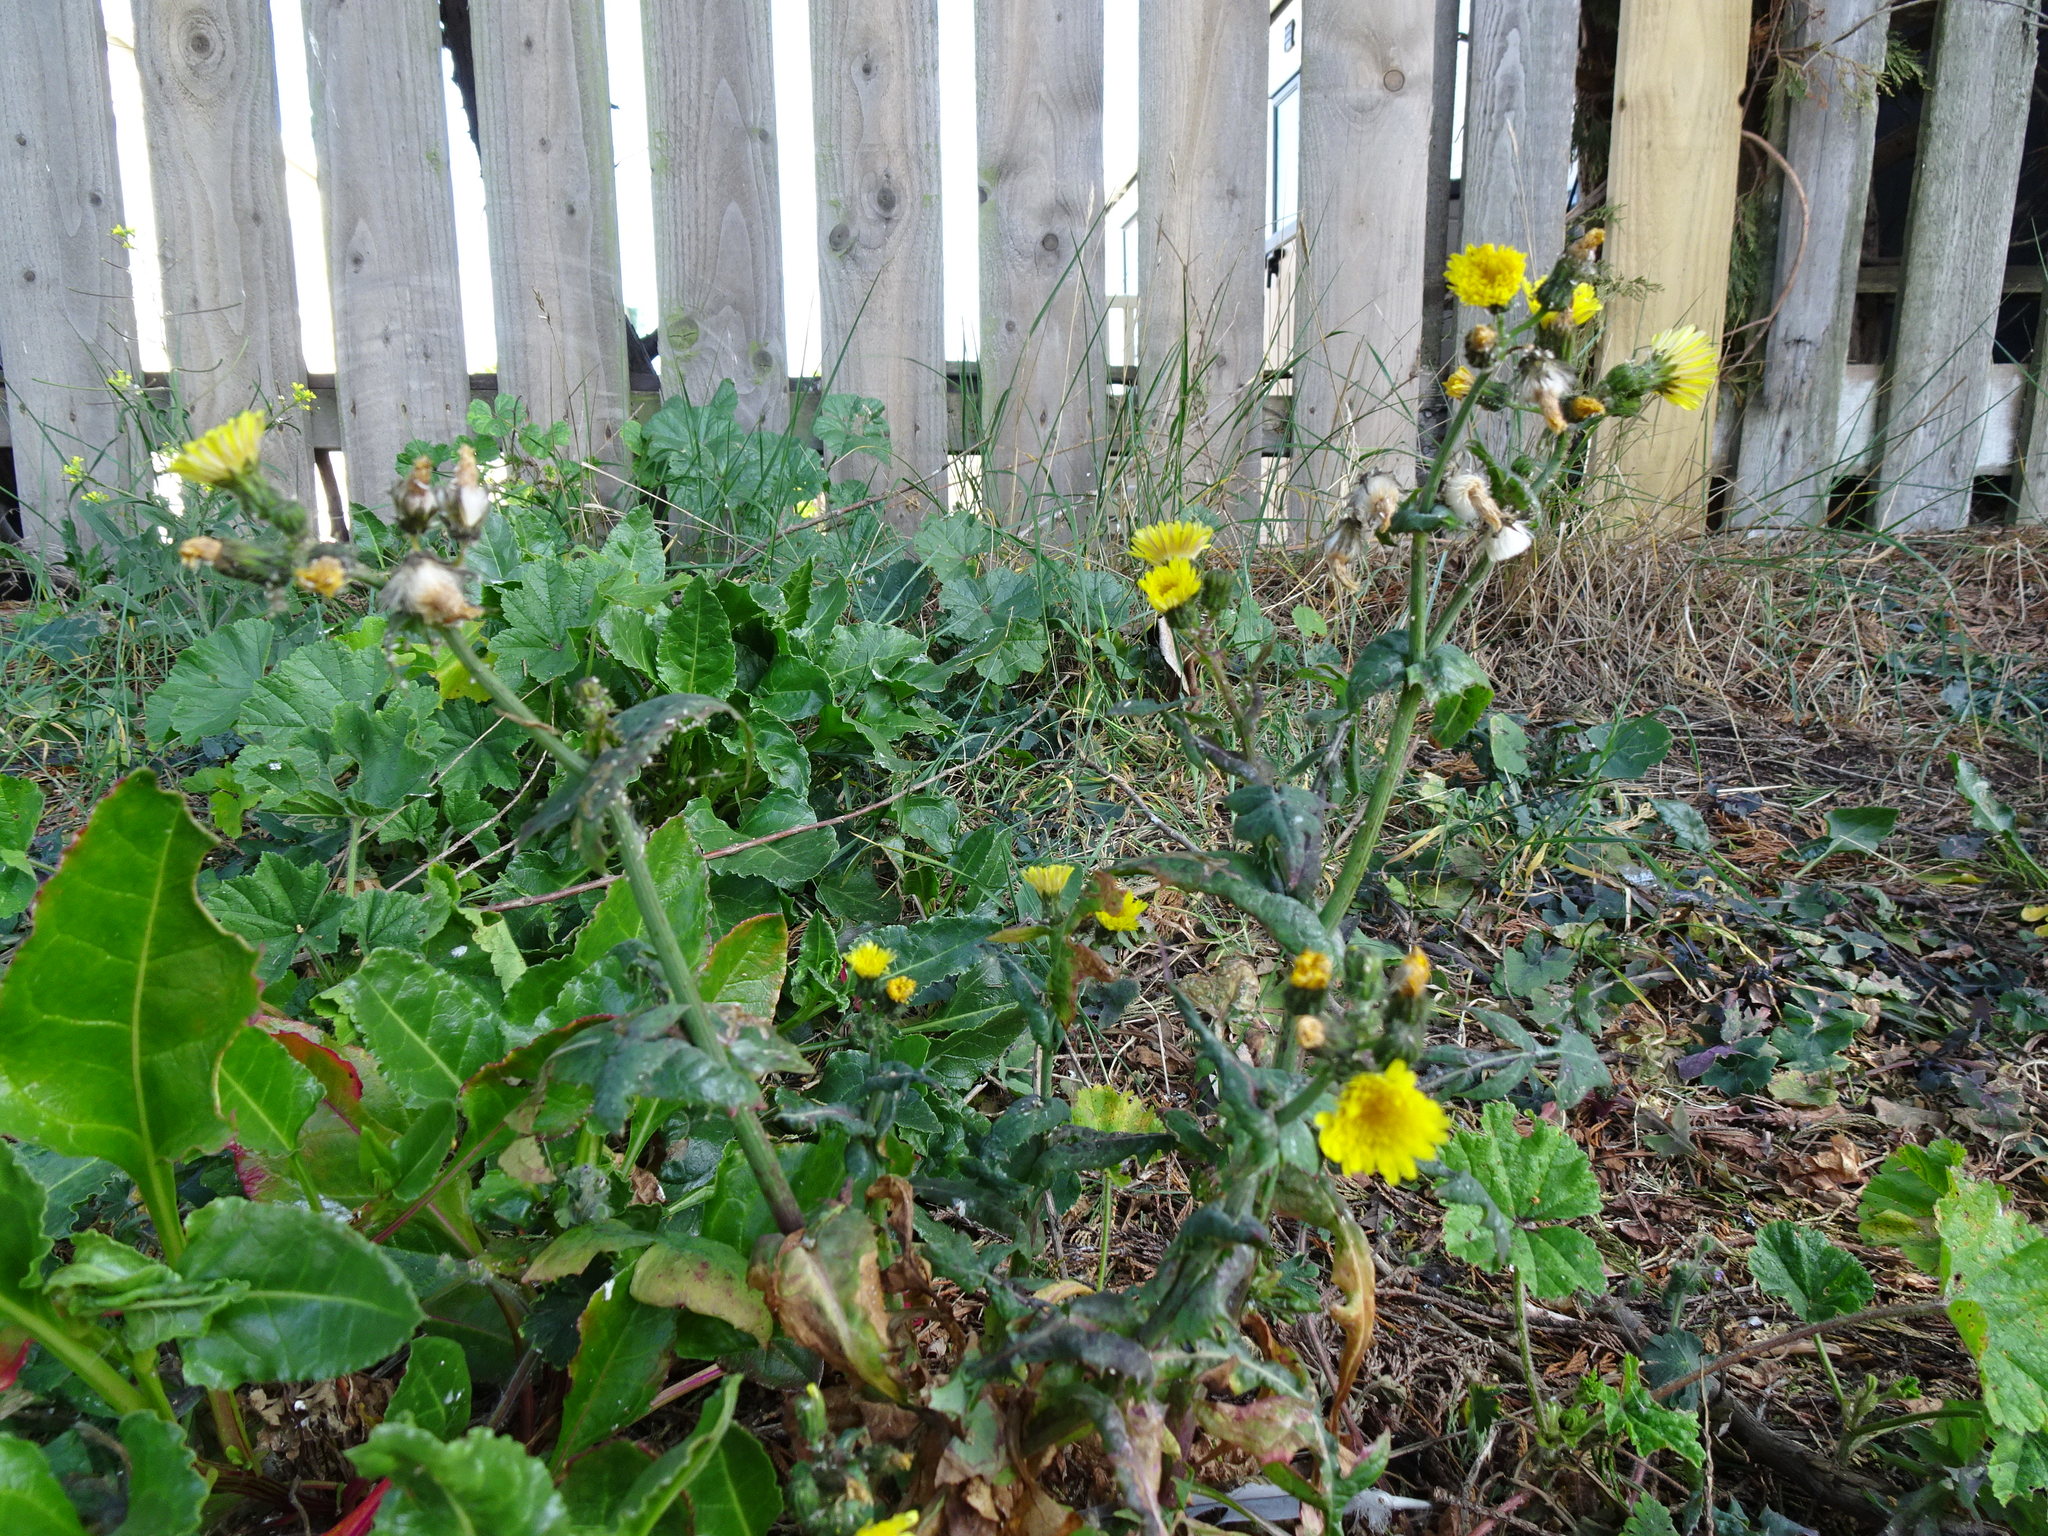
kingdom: Plantae
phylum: Tracheophyta
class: Magnoliopsida
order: Asterales
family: Asteraceae
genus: Sonchus
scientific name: Sonchus oleraceus
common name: Common sowthistle
